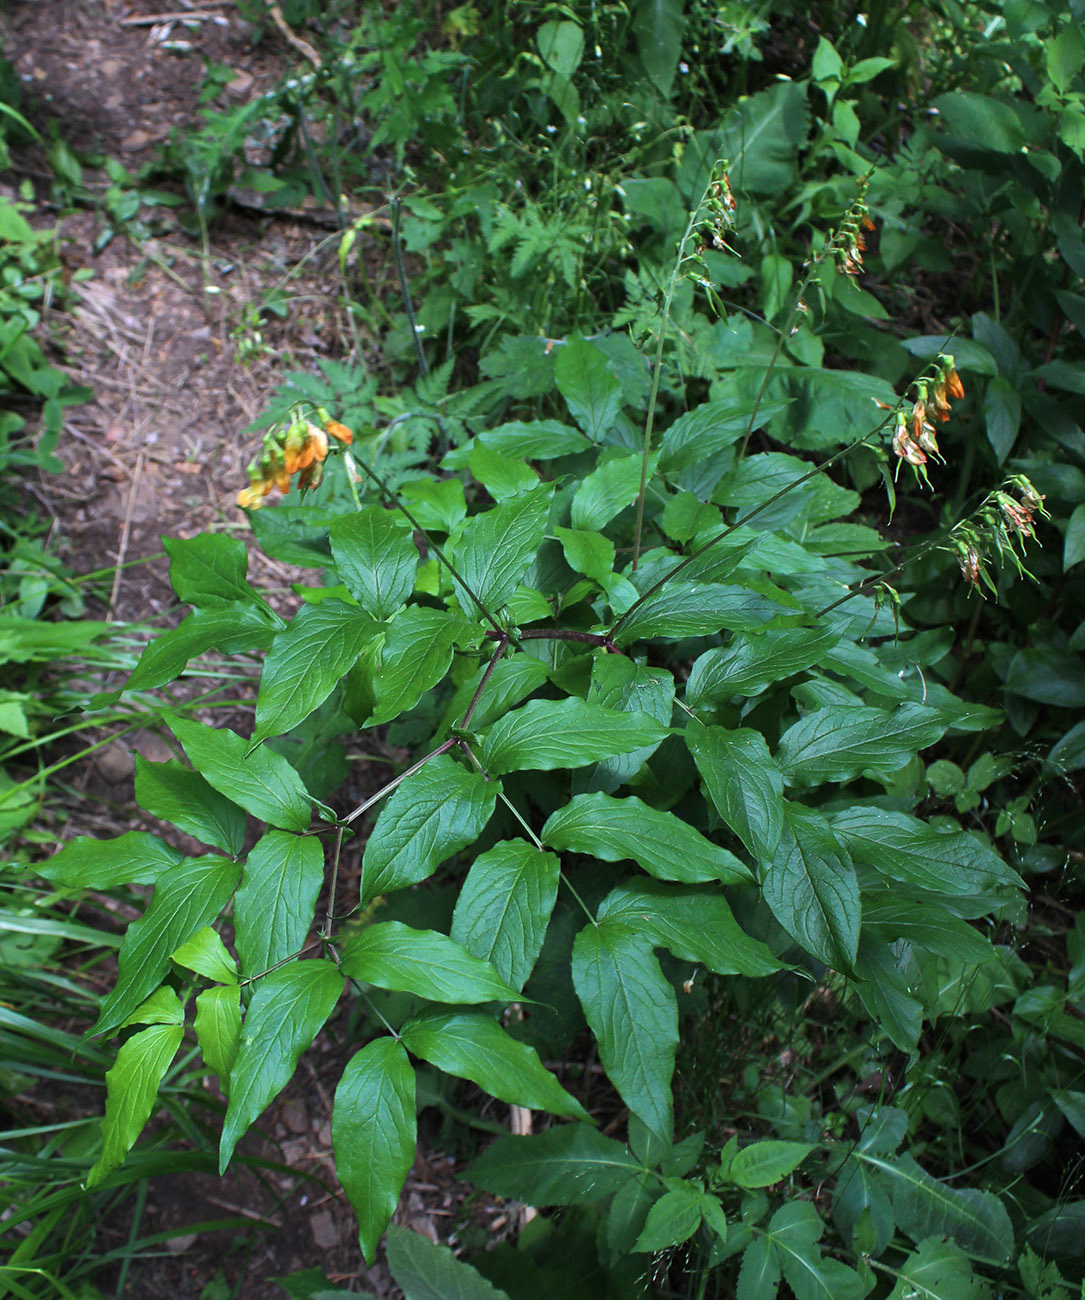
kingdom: Plantae
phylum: Tracheophyta
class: Magnoliopsida
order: Fabales
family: Fabaceae
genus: Lathyrus
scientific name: Lathyrus aureus
